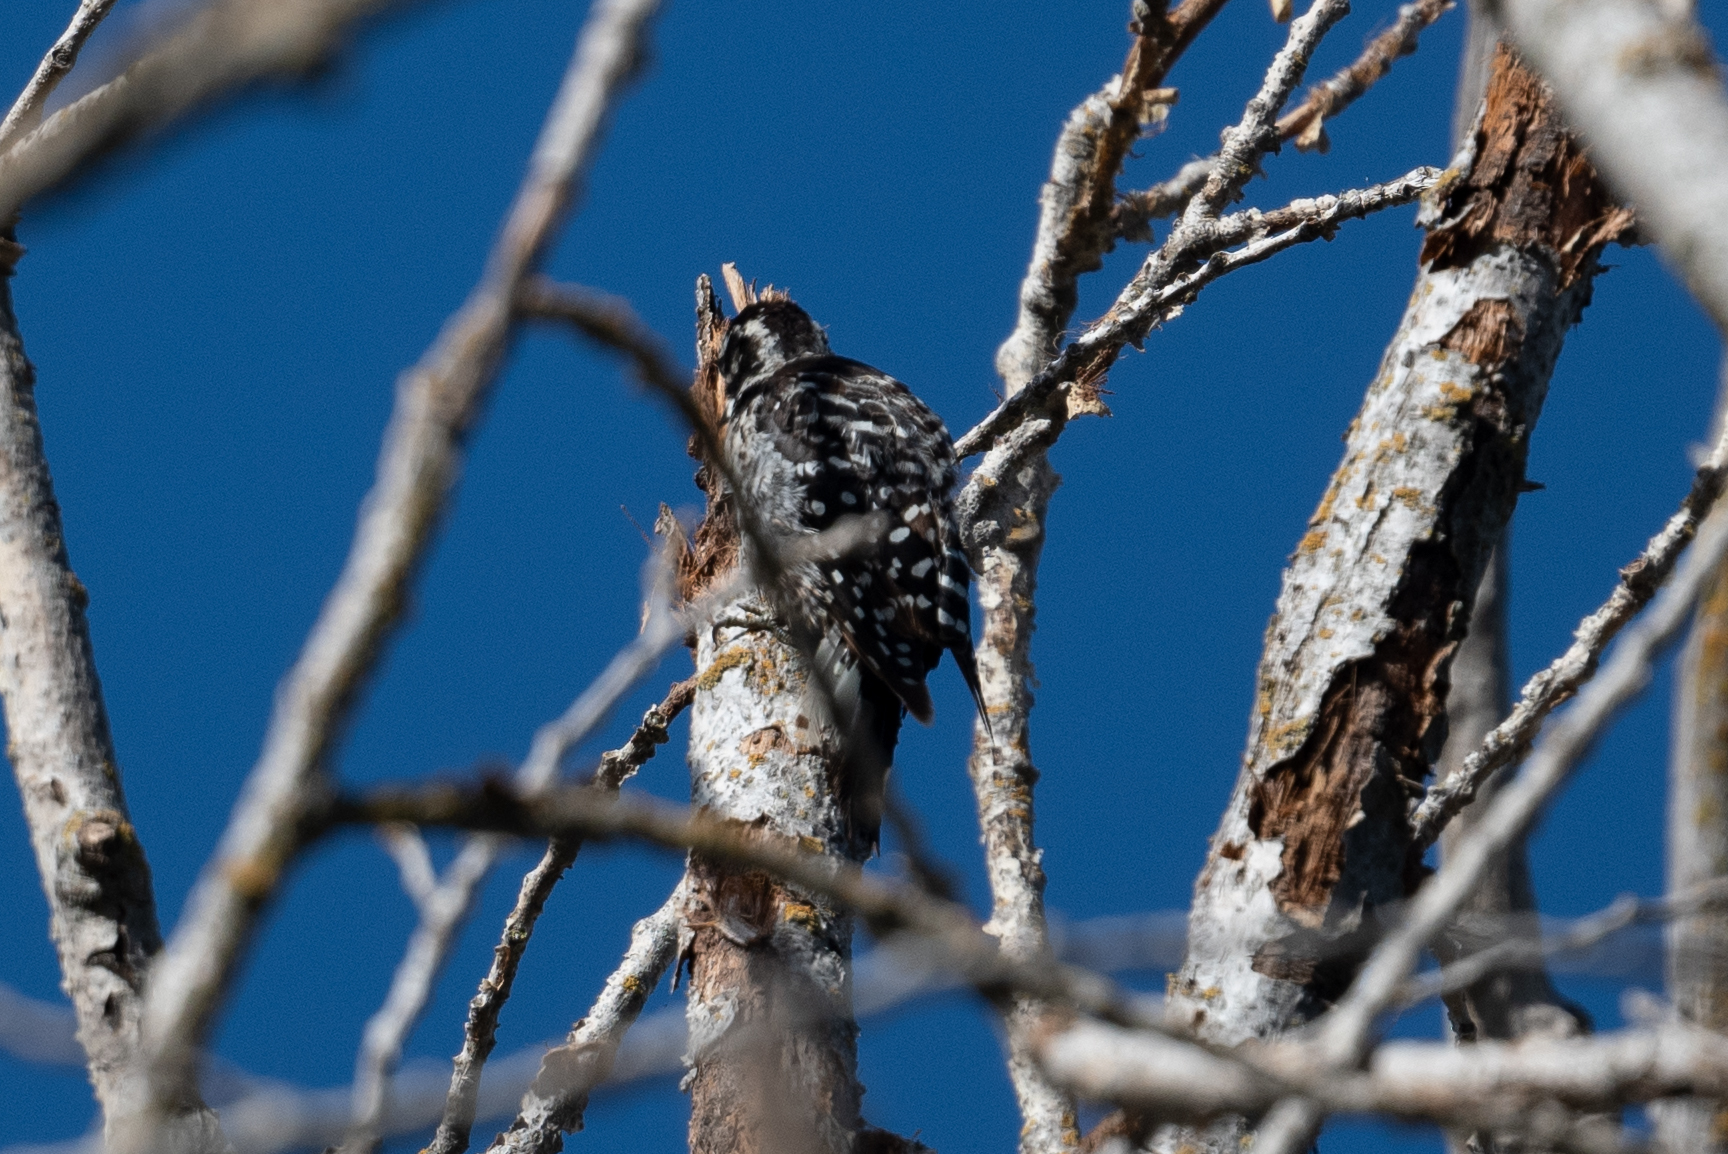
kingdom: Animalia
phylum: Chordata
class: Aves
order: Piciformes
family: Picidae
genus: Dryobates
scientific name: Dryobates nuttallii
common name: Nuttall's woodpecker
